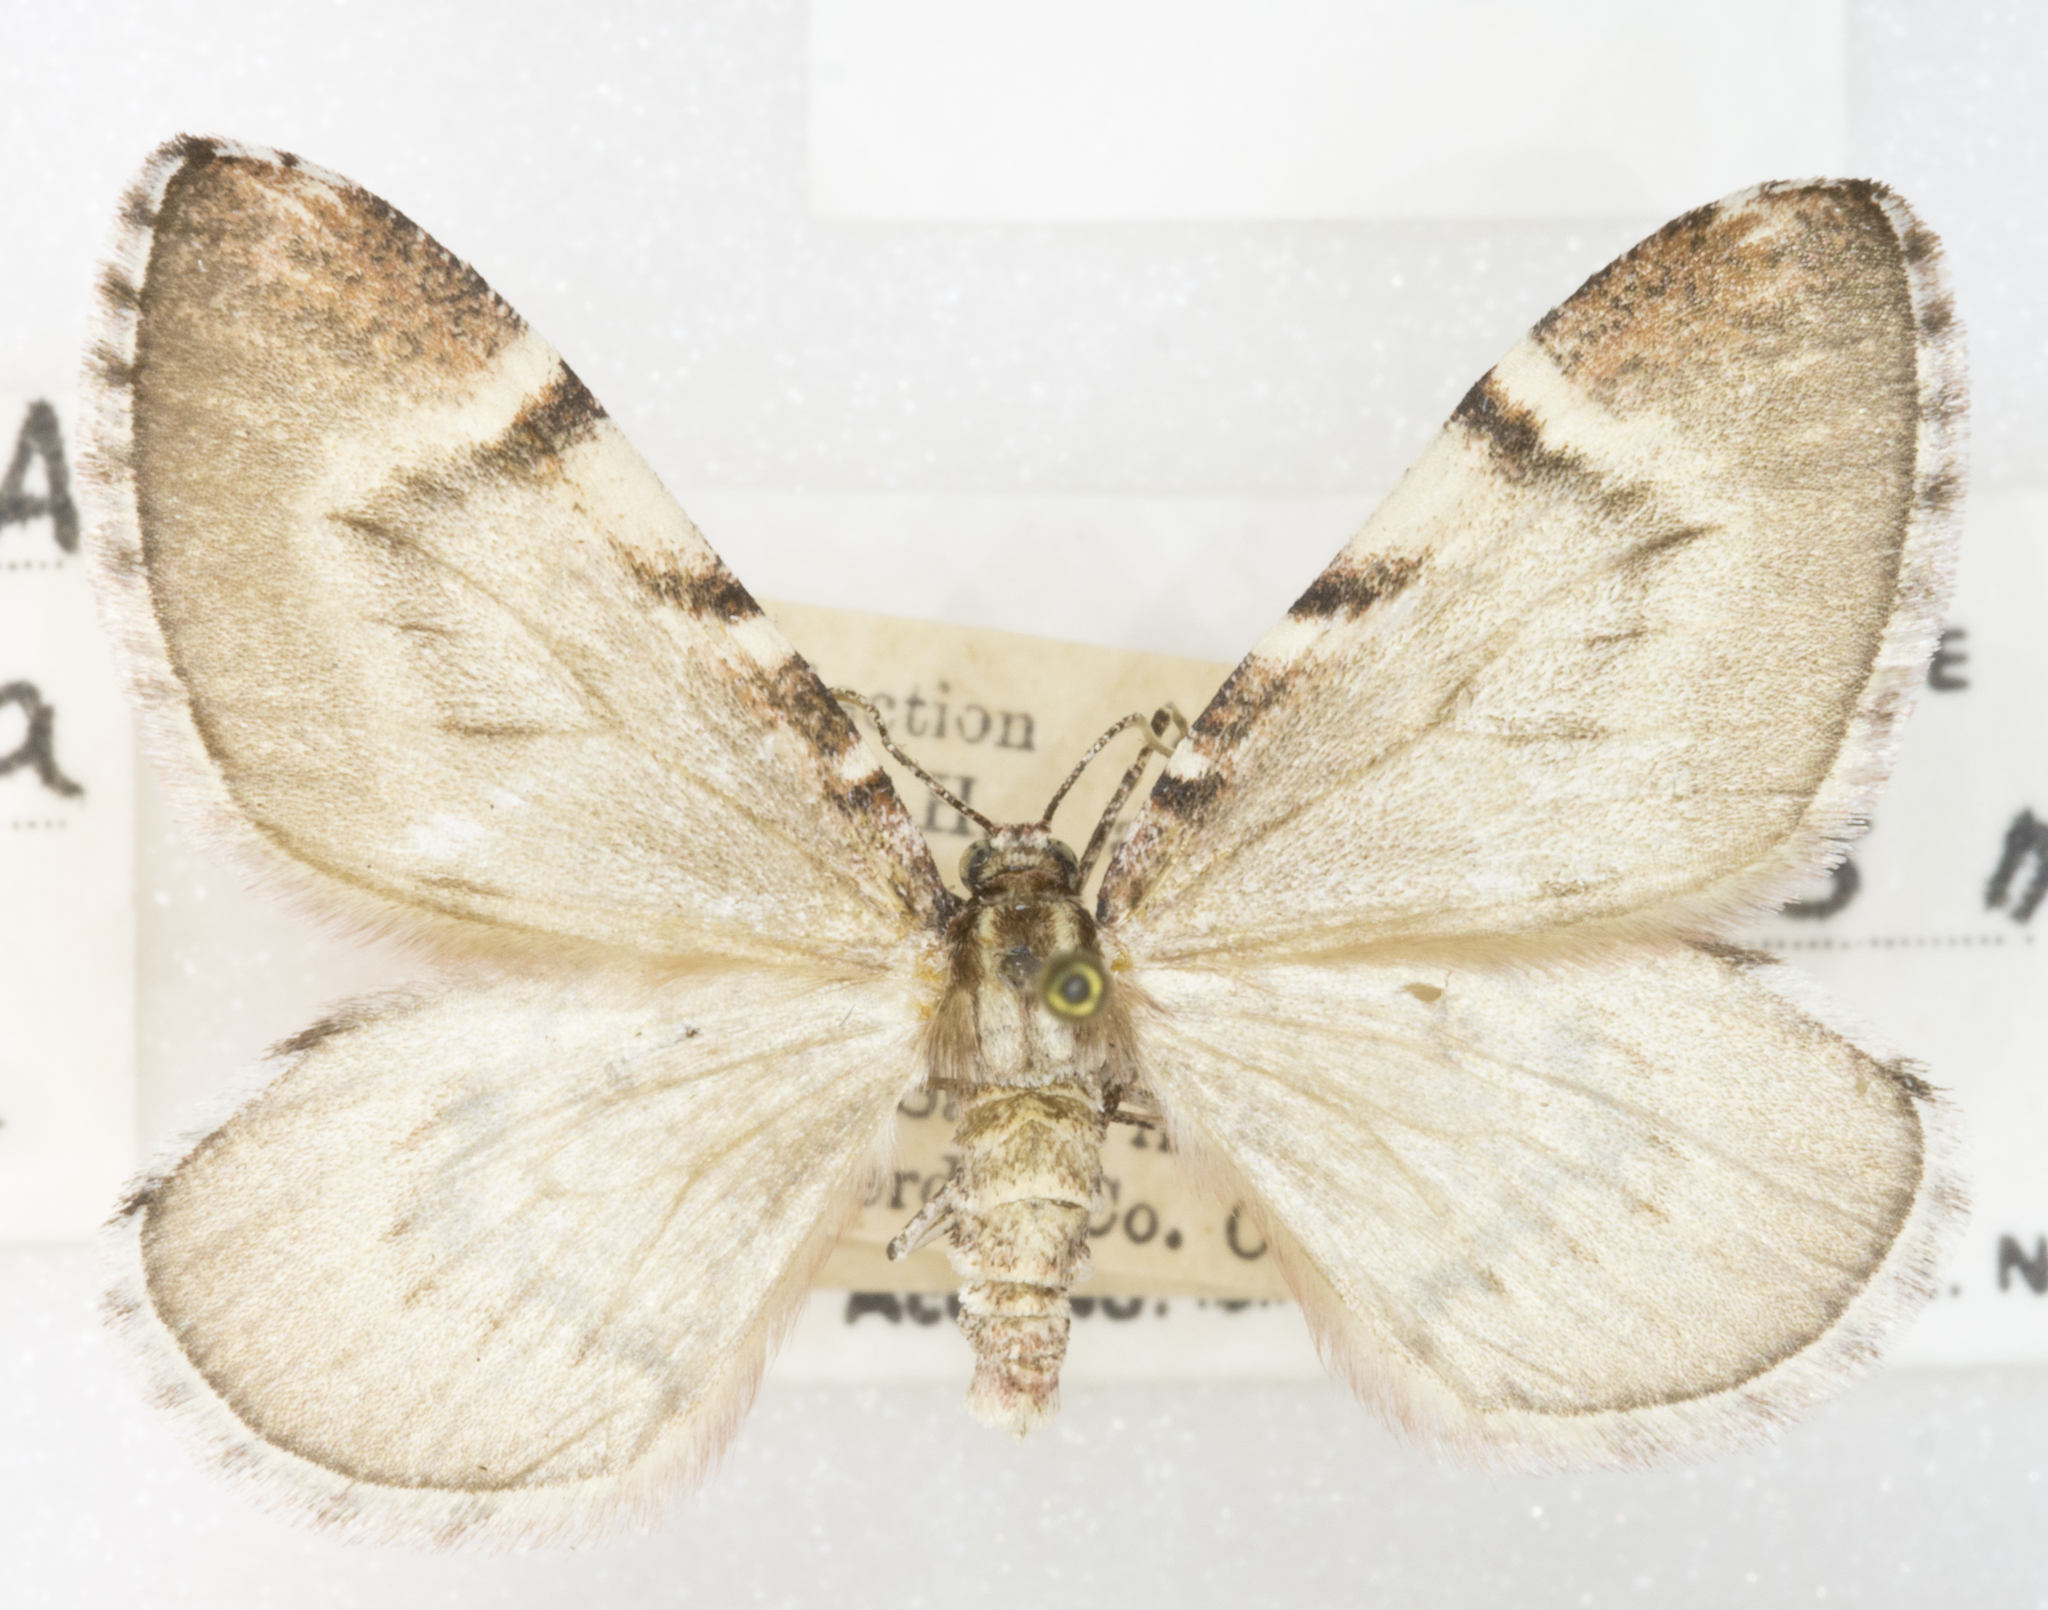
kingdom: Animalia
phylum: Arthropoda
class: Insecta
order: Lepidoptera
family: Geometridae
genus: Stamnodes
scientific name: Stamnodes modocata
